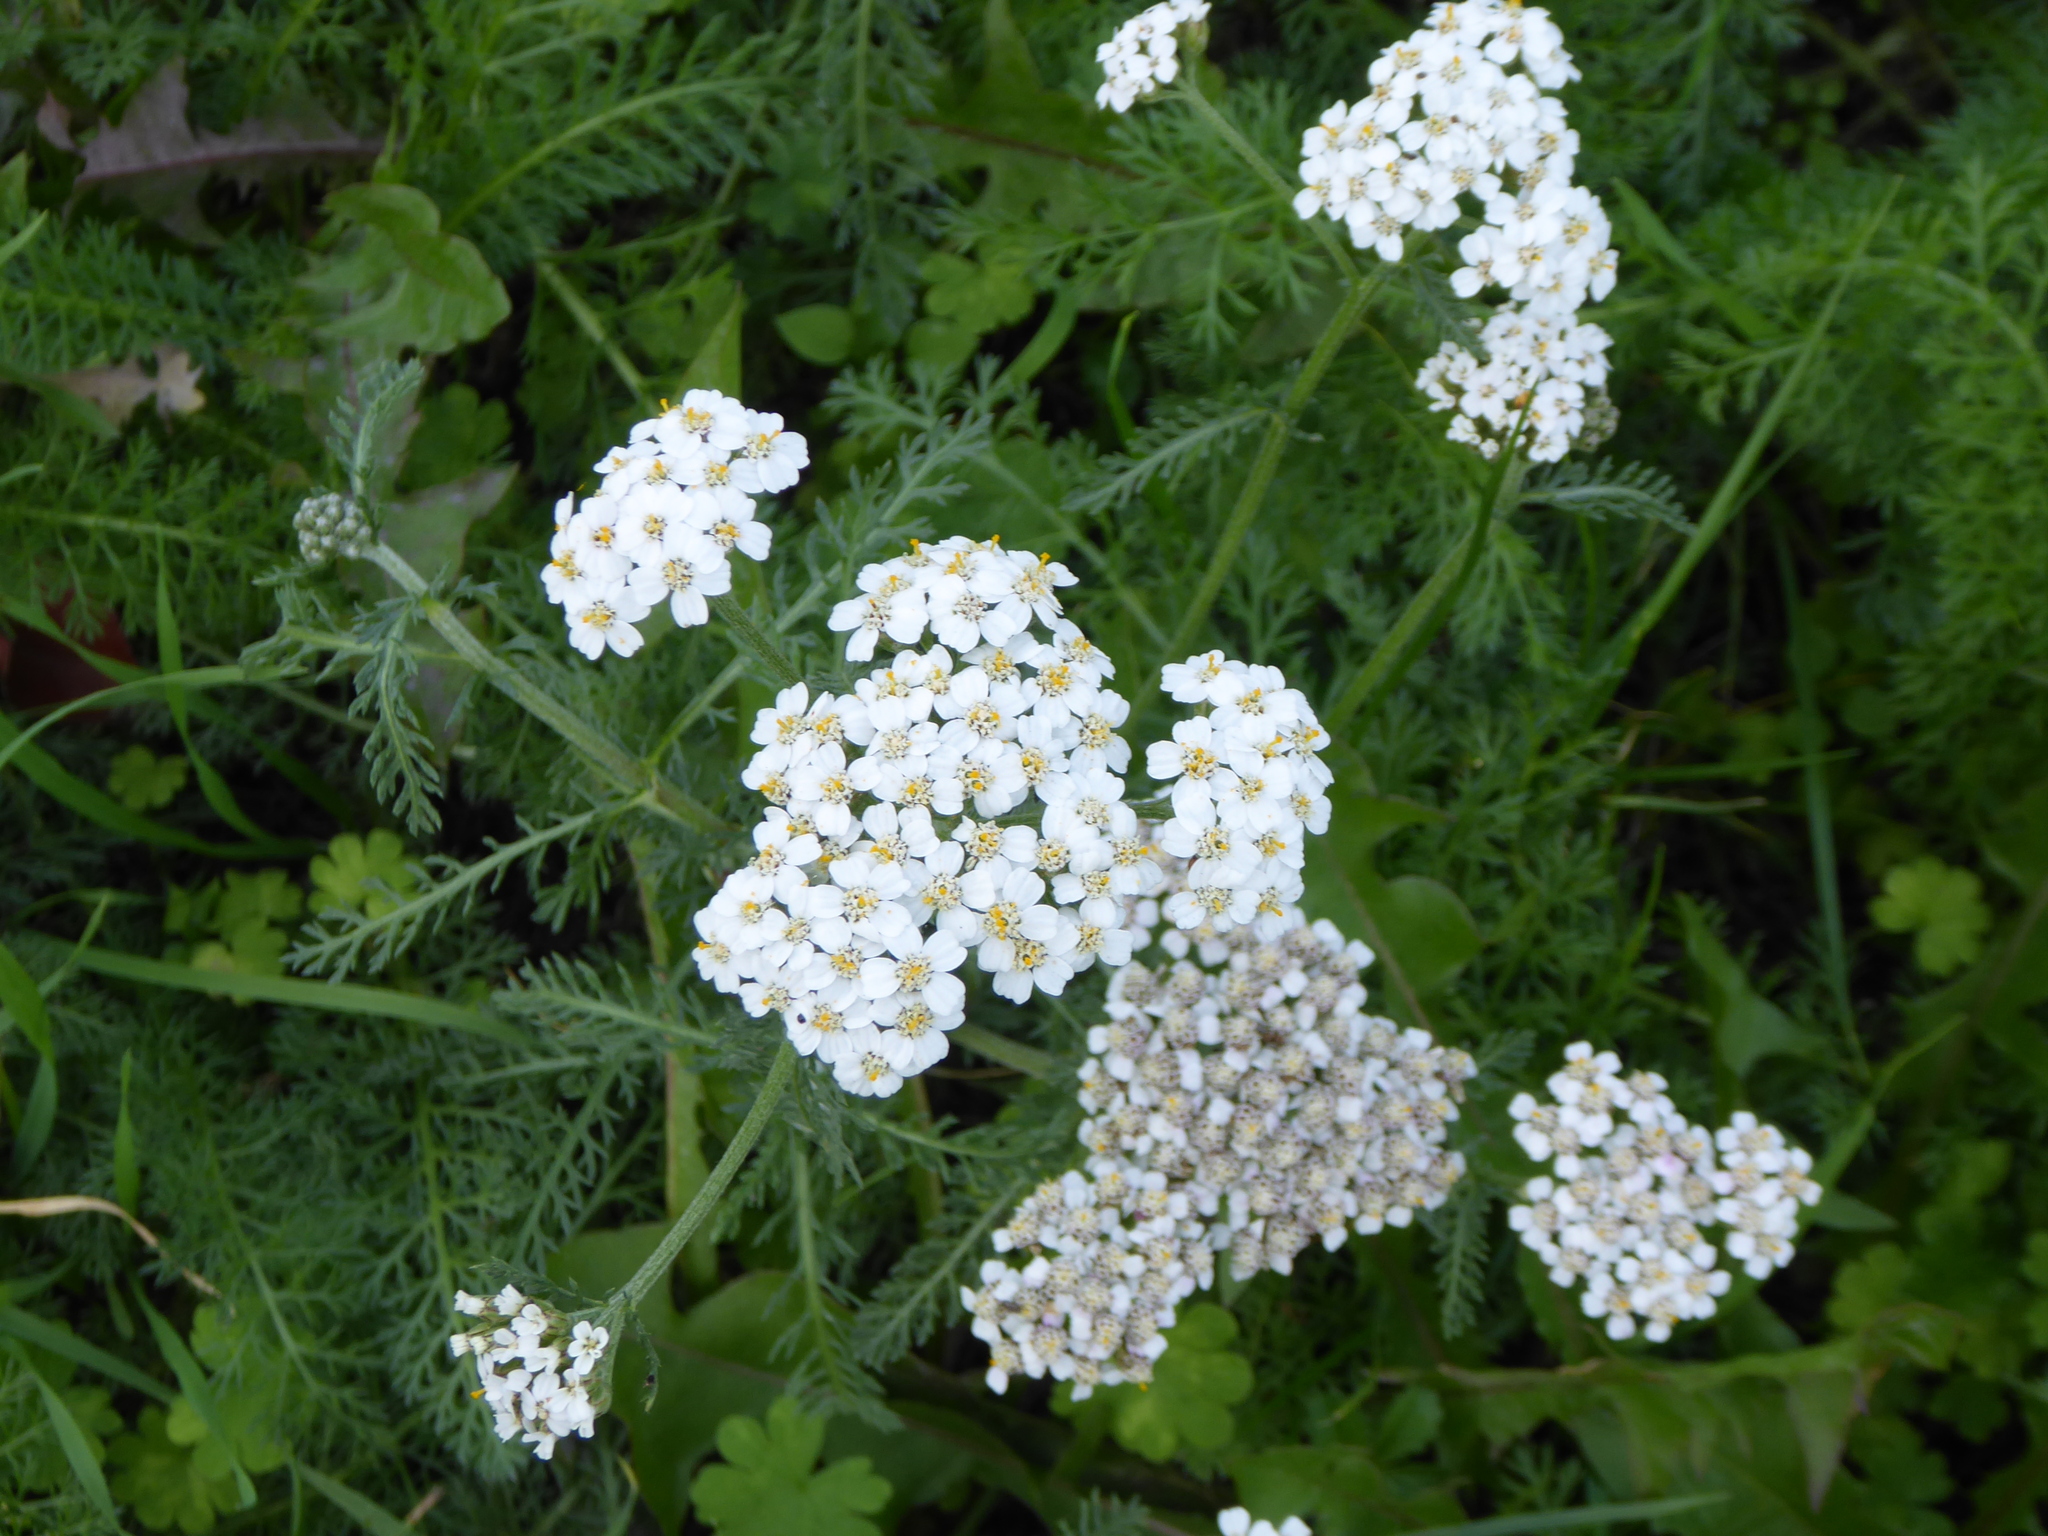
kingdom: Plantae
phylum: Tracheophyta
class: Magnoliopsida
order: Asterales
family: Asteraceae
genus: Achillea
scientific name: Achillea millefolium
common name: Yarrow
